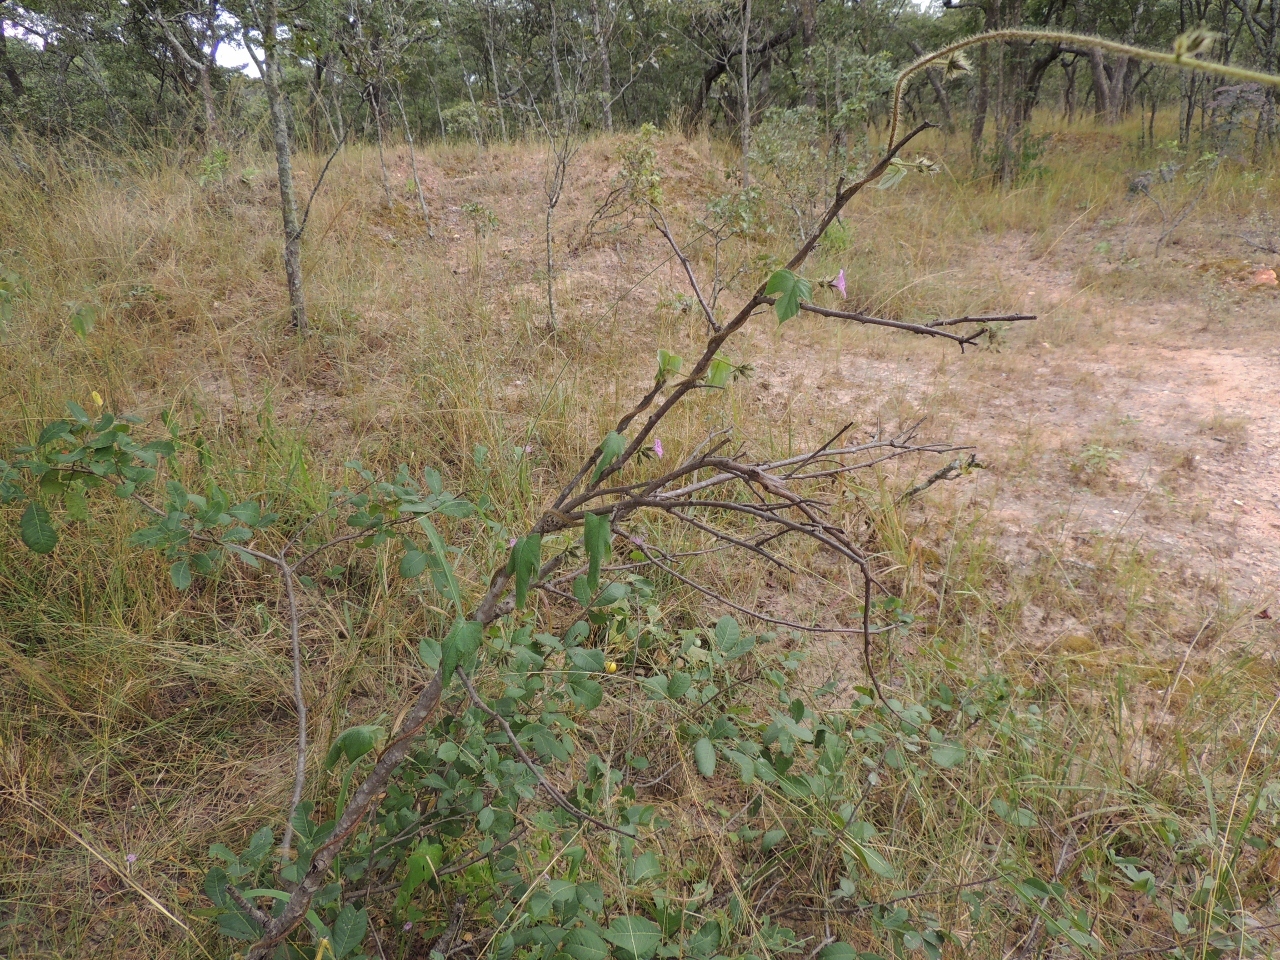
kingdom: Plantae
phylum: Tracheophyta
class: Magnoliopsida
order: Solanales
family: Convolvulaceae
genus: Ipomoea
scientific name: Ipomoea arachnosperma
